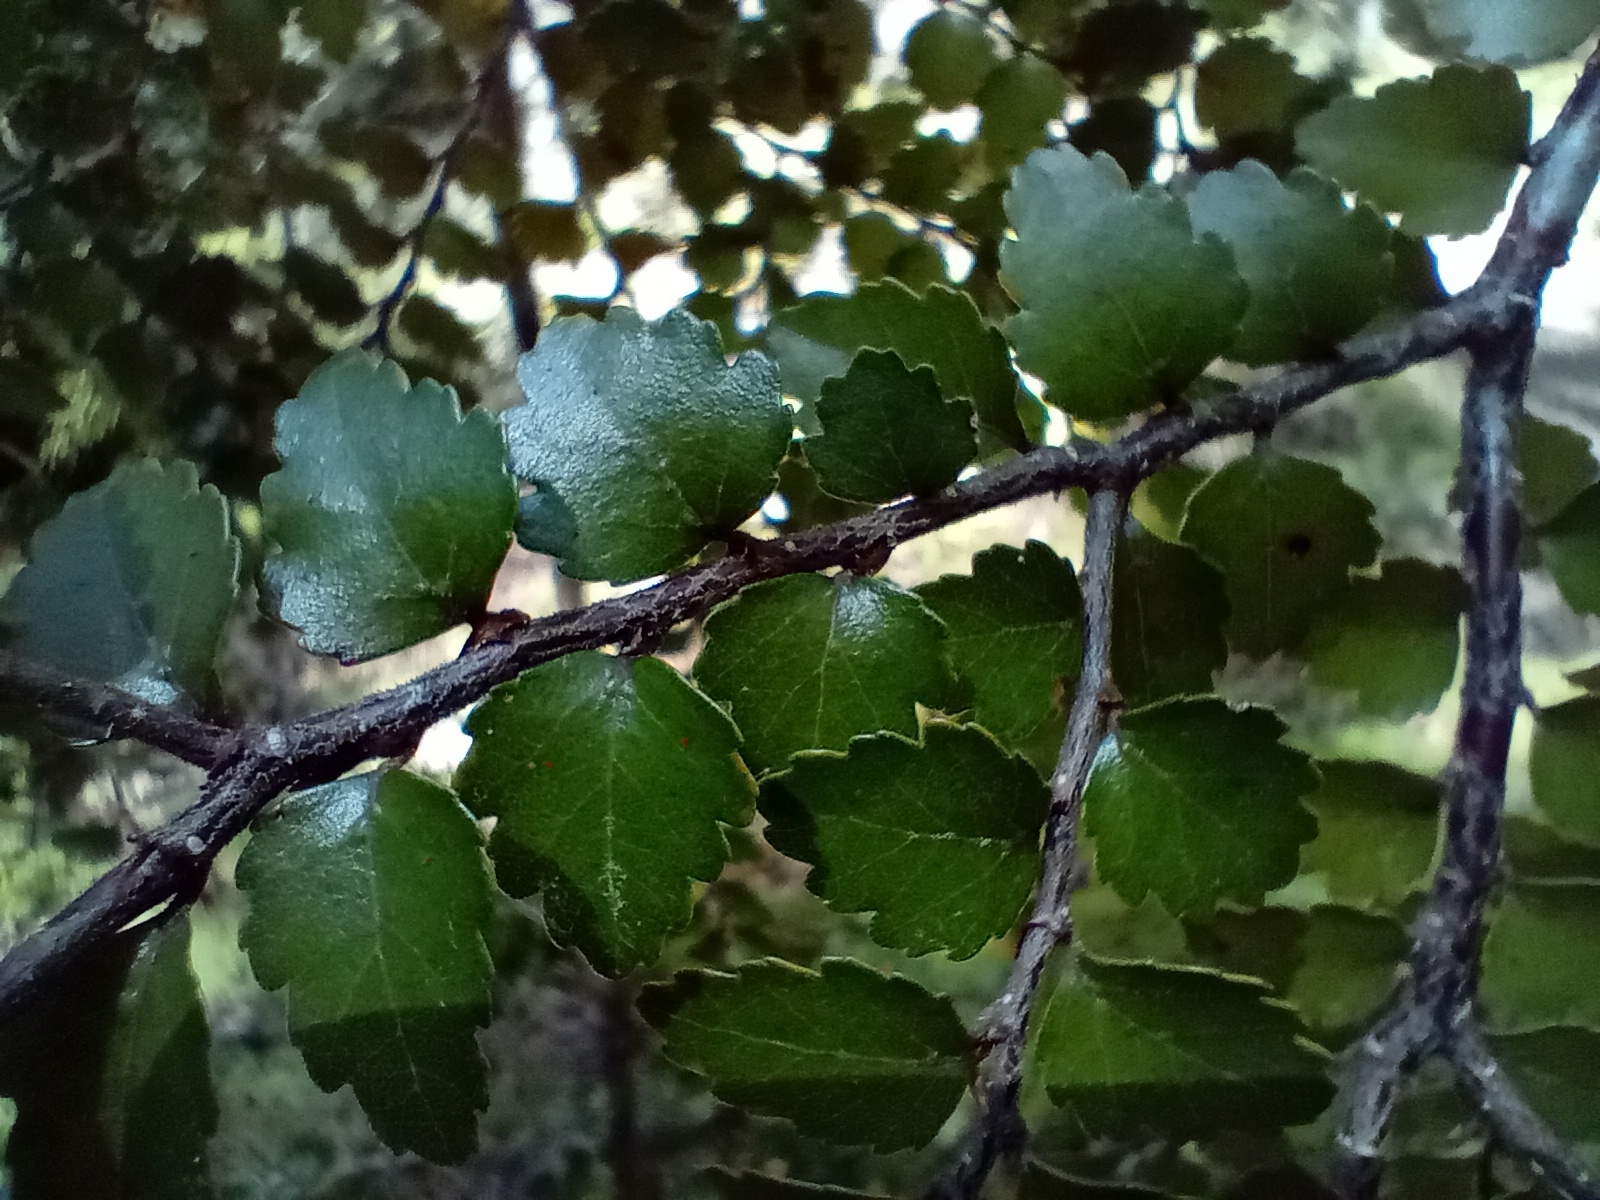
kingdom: Plantae
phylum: Tracheophyta
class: Magnoliopsida
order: Fagales
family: Nothofagaceae
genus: Nothofagus
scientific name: Nothofagus menziesii
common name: Silver beech
